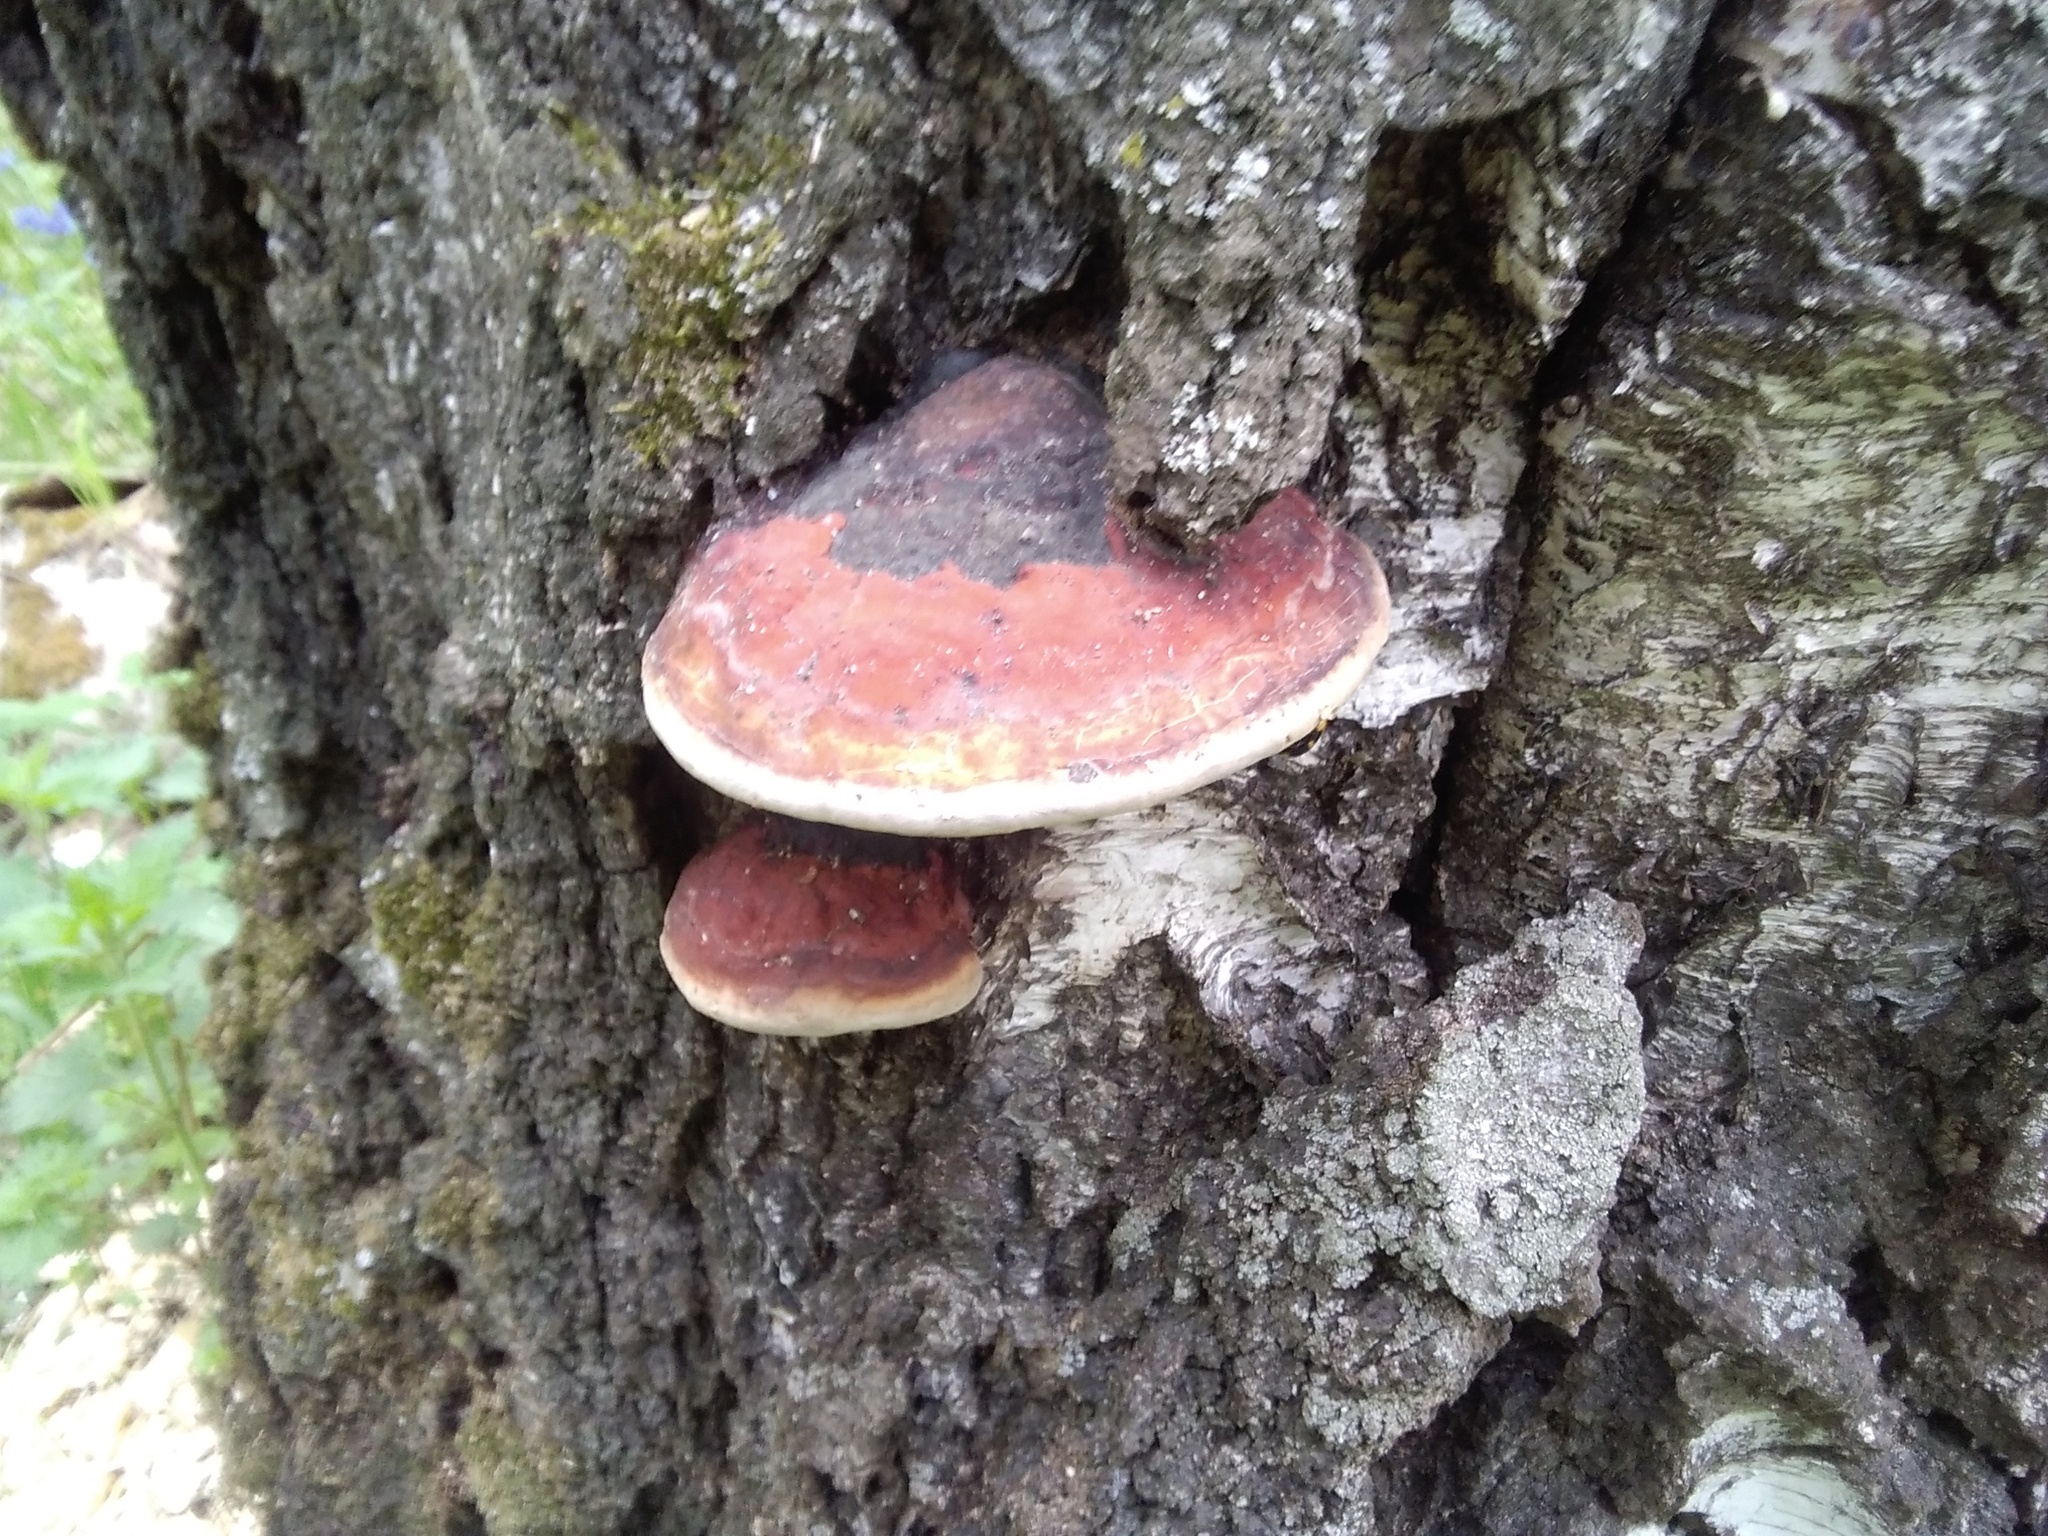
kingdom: Fungi
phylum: Basidiomycota
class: Agaricomycetes
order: Polyporales
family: Fomitopsidaceae
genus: Fomitopsis
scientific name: Fomitopsis pinicola
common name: Red-belted bracket
